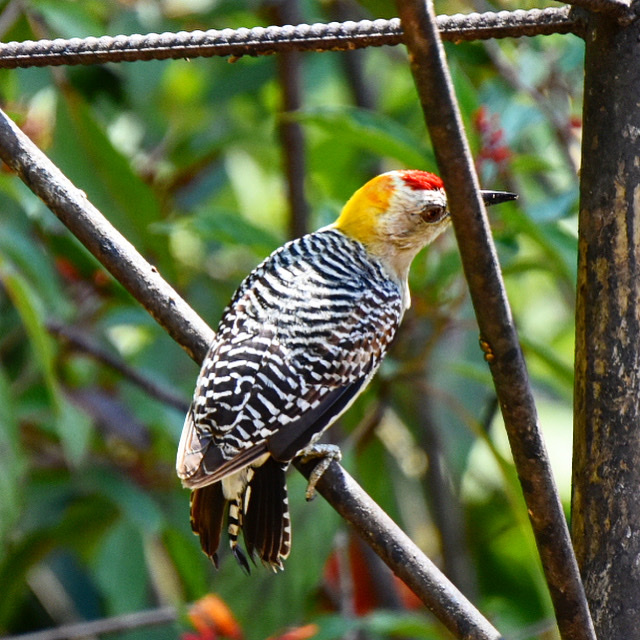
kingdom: Animalia
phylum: Chordata
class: Aves
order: Piciformes
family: Picidae
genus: Melanerpes
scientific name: Melanerpes hoffmannii
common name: Hoffmann's woodpecker
